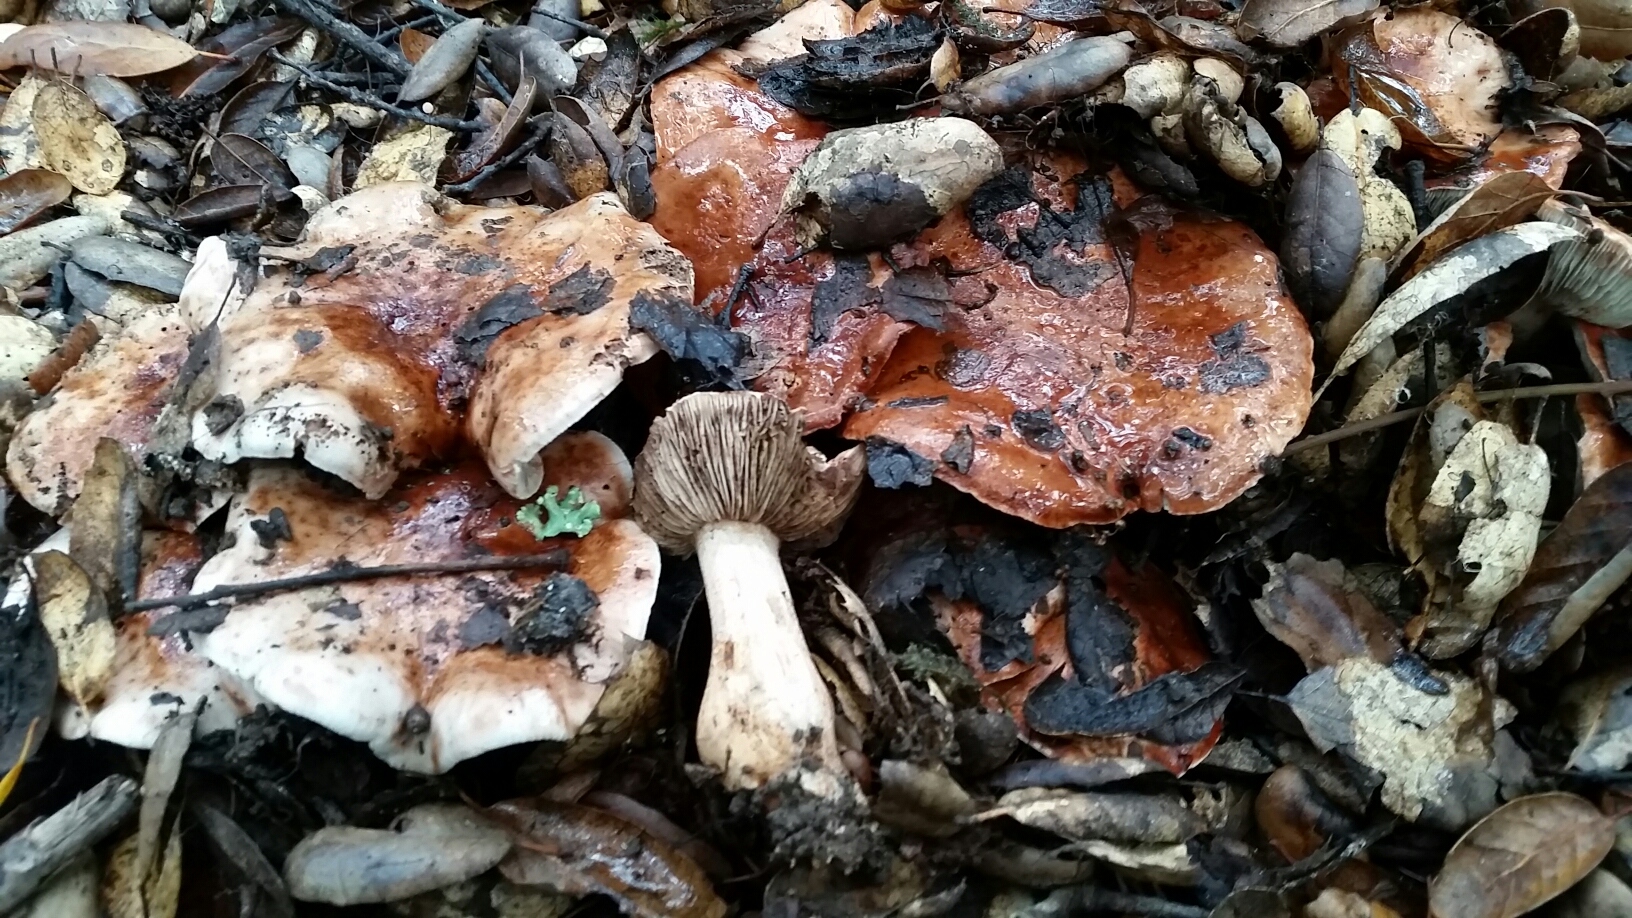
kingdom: Fungi
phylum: Basidiomycota
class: Agaricomycetes
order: Agaricales
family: Tricholomataceae
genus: Melanoleuca
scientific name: Melanoleuca dryophila
